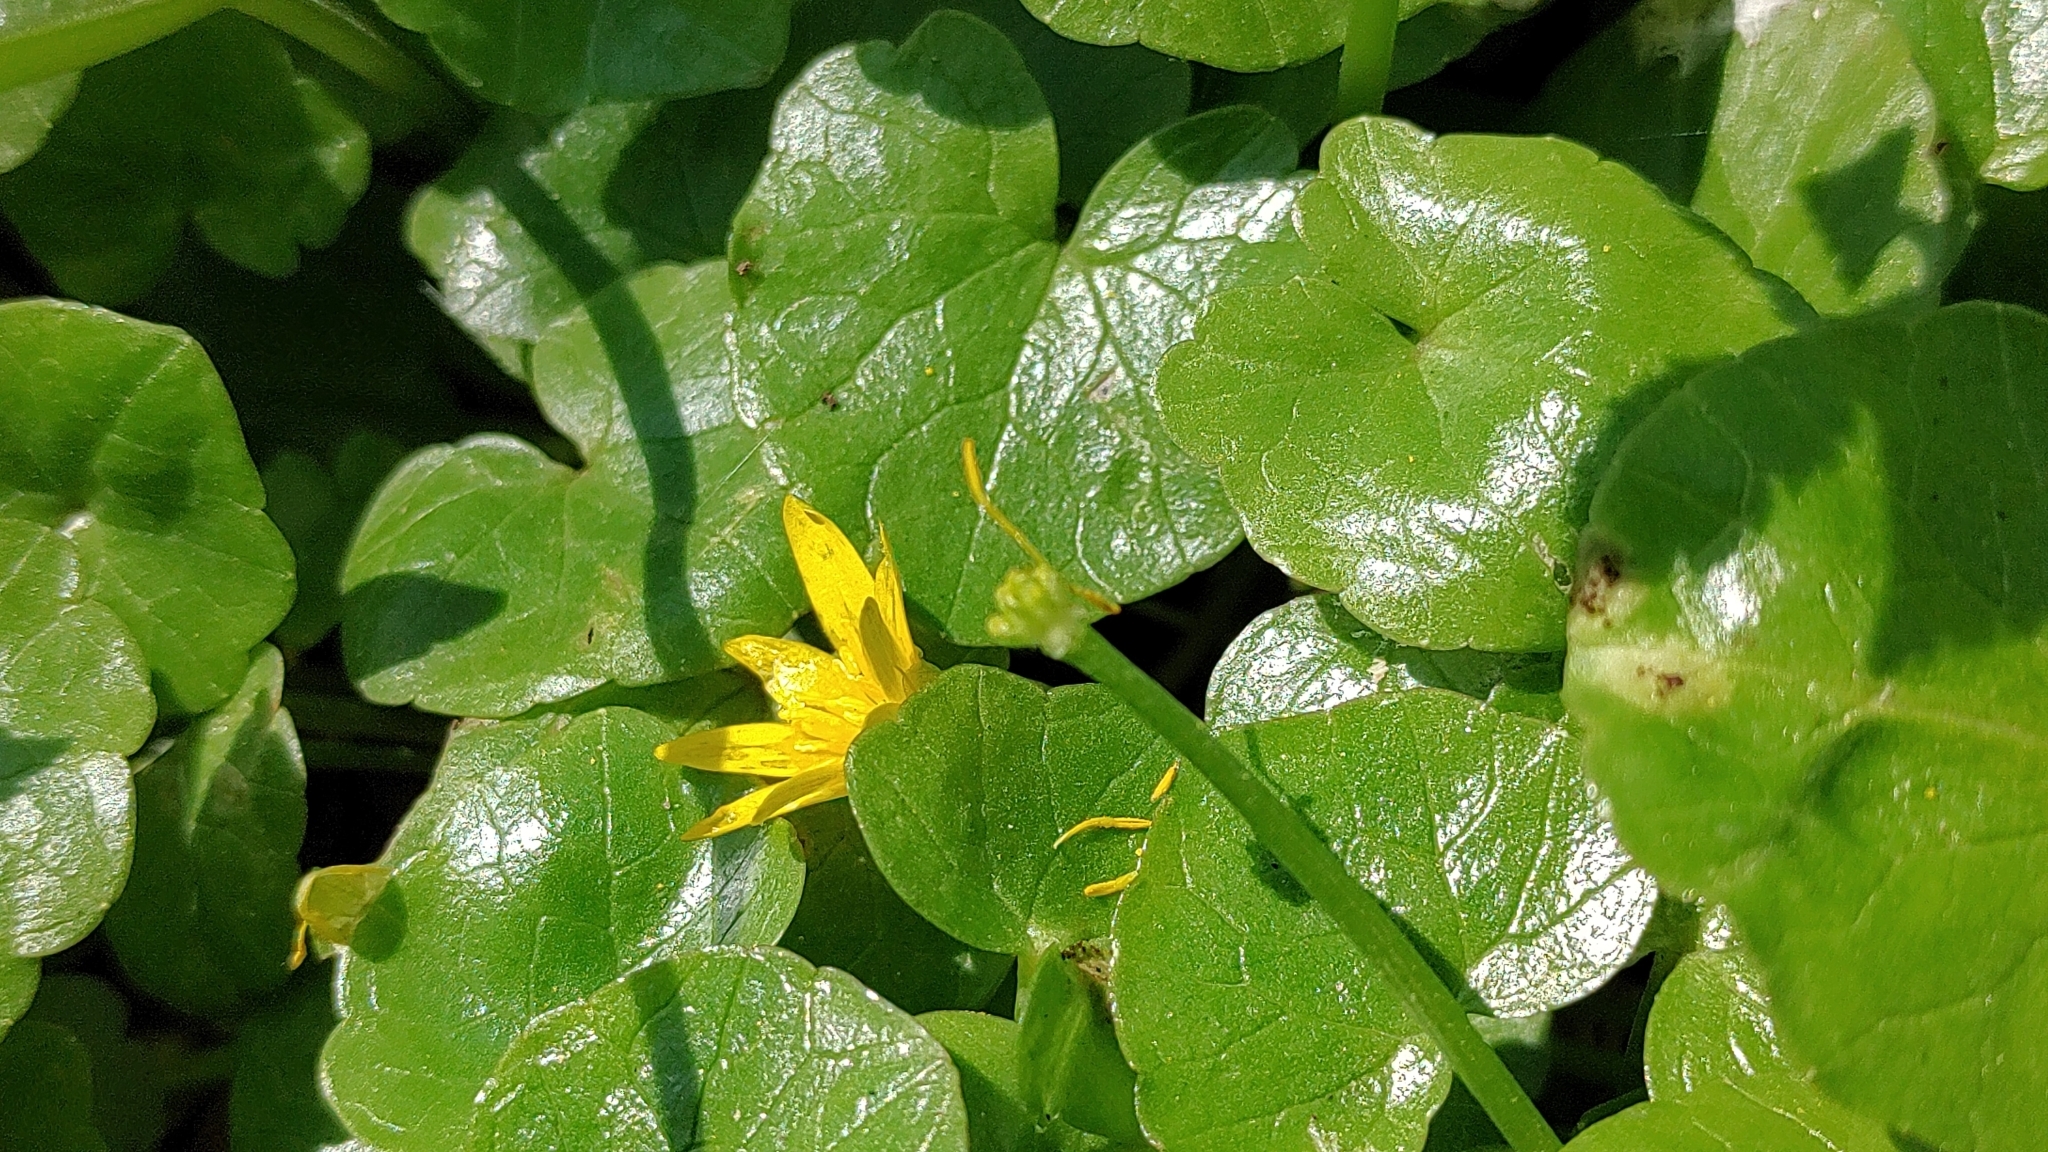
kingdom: Plantae
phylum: Tracheophyta
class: Magnoliopsida
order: Ranunculales
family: Ranunculaceae
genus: Ficaria
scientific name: Ficaria verna
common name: Lesser celandine
